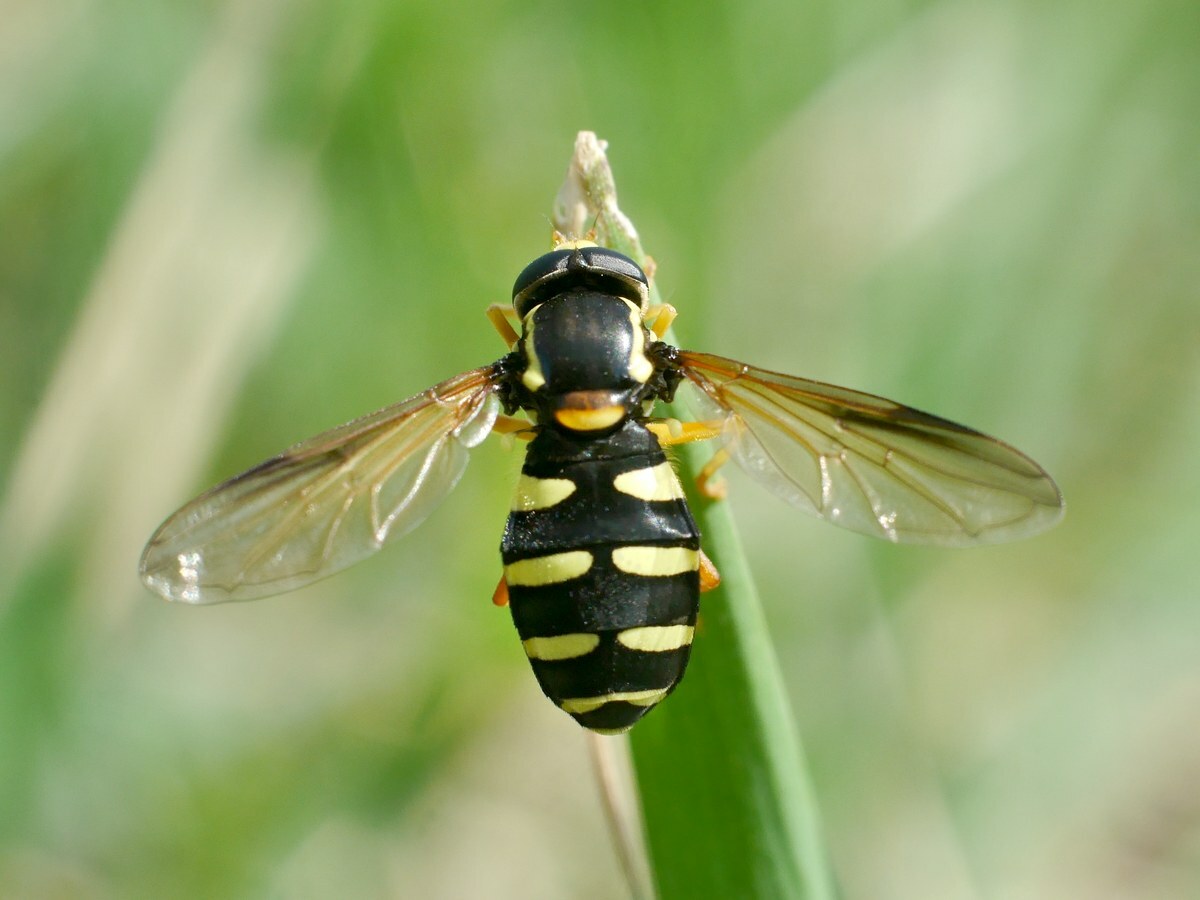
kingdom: Animalia
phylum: Arthropoda
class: Insecta
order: Diptera
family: Syrphidae
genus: Philhelius
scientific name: Philhelius citrofasciata
